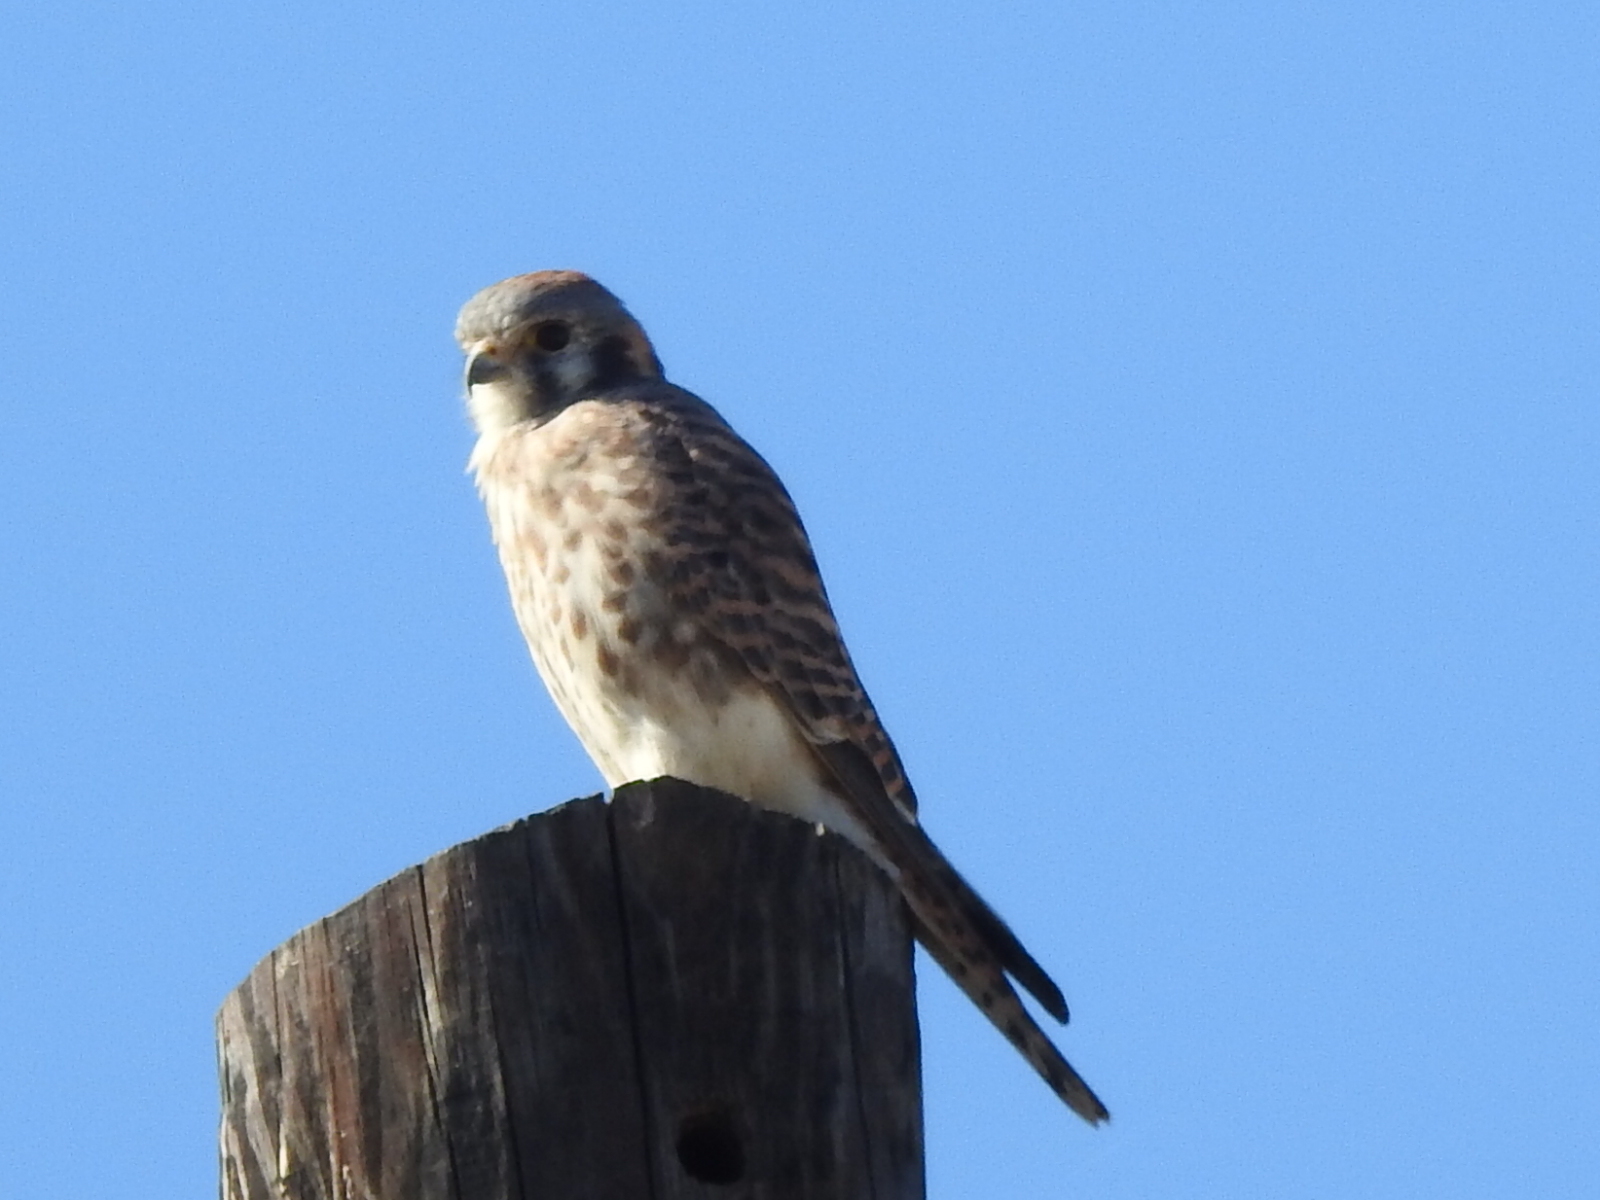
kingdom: Animalia
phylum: Chordata
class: Aves
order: Falconiformes
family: Falconidae
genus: Falco
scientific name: Falco sparverius
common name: American kestrel
